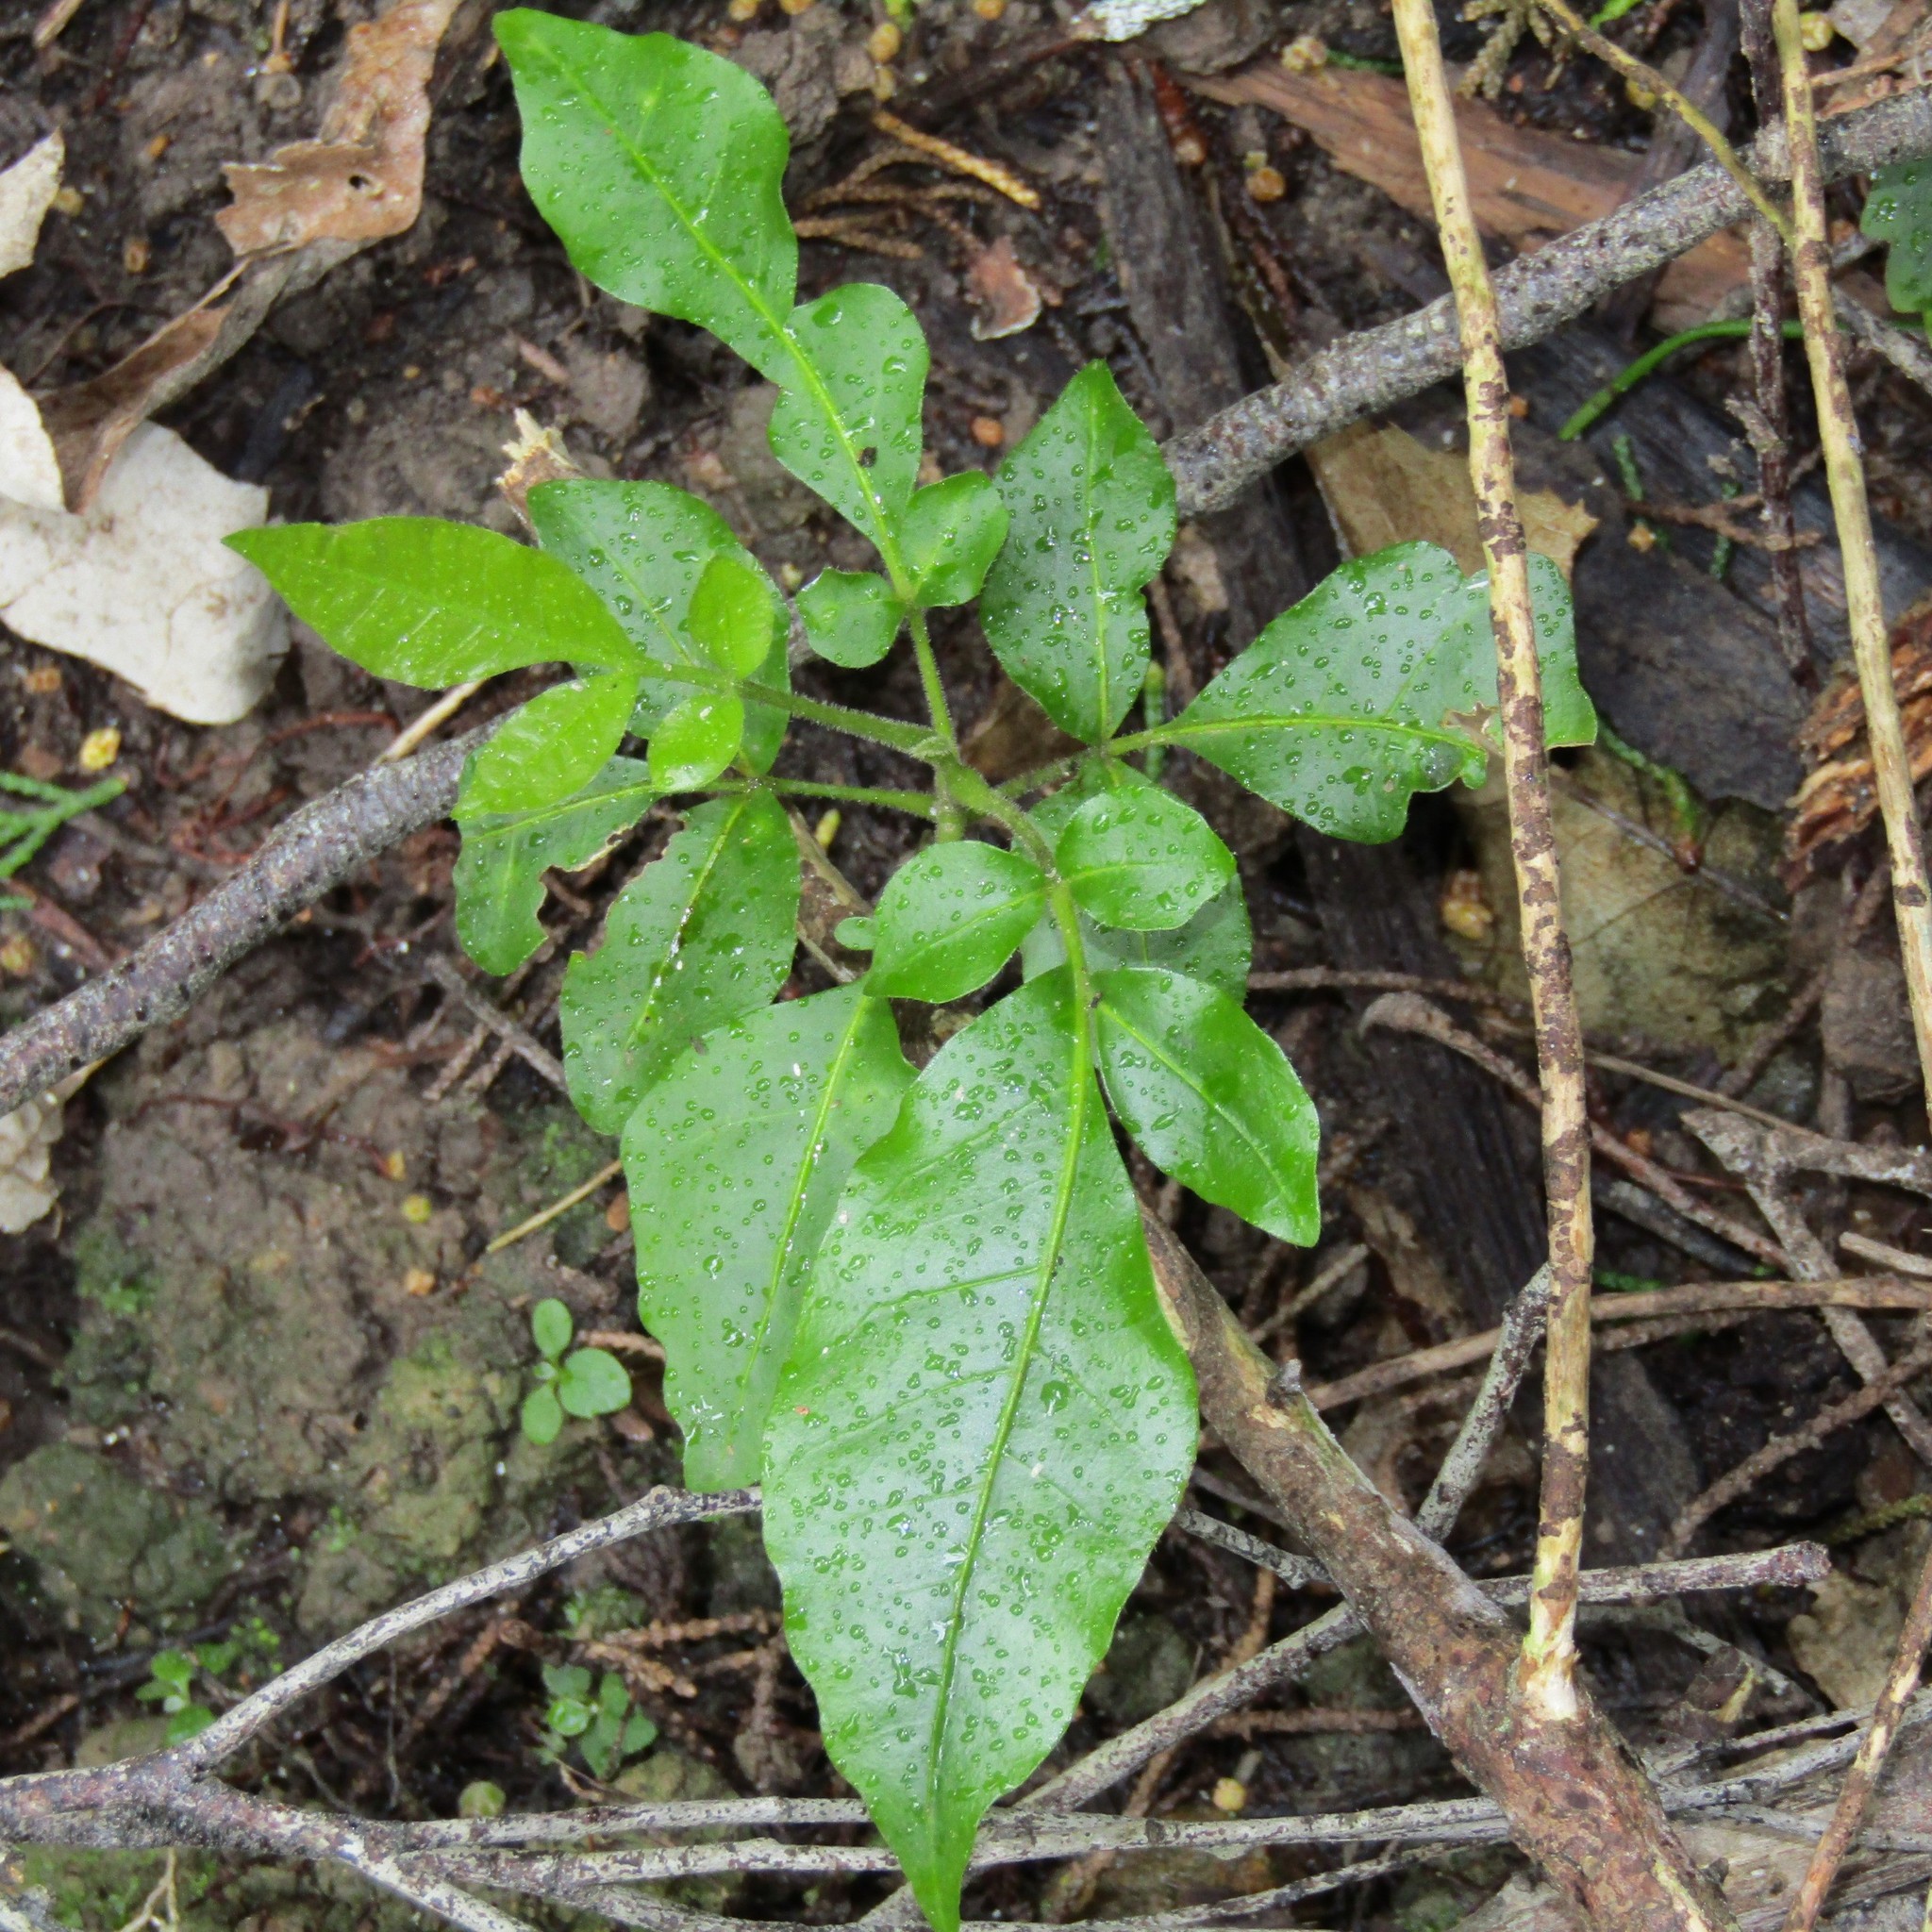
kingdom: Plantae
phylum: Tracheophyta
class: Magnoliopsida
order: Sapindales
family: Meliaceae
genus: Didymocheton
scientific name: Didymocheton spectabilis
